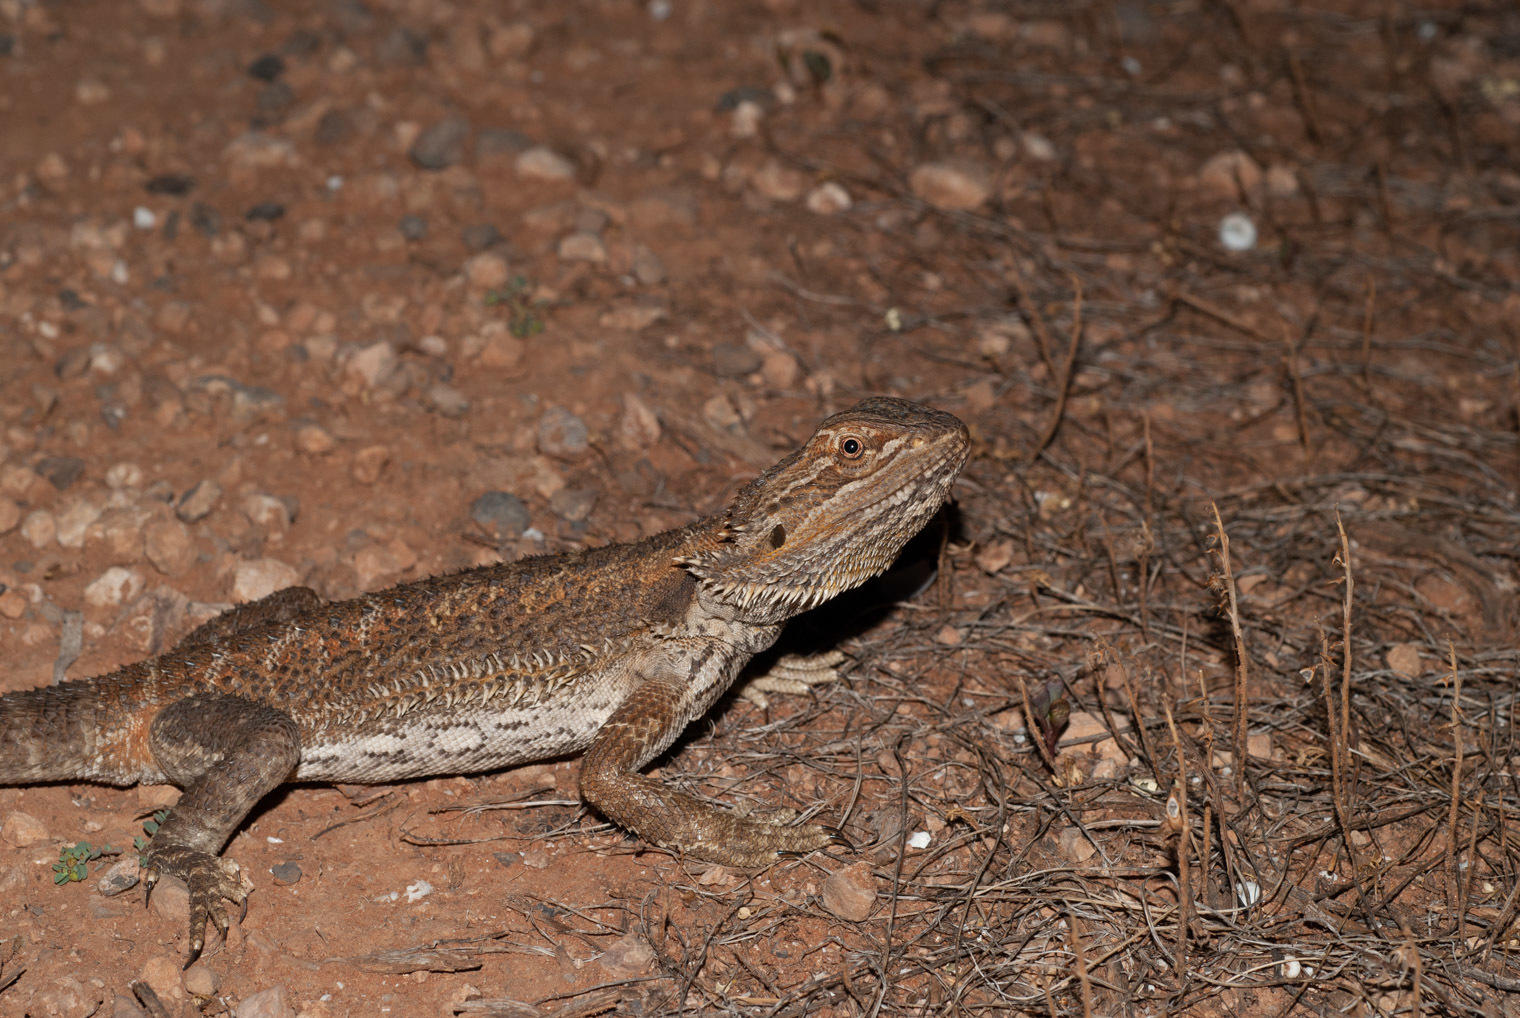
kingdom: Animalia
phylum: Chordata
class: Squamata
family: Agamidae
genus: Pogona
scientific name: Pogona vitticeps
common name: Central bearded dragon
